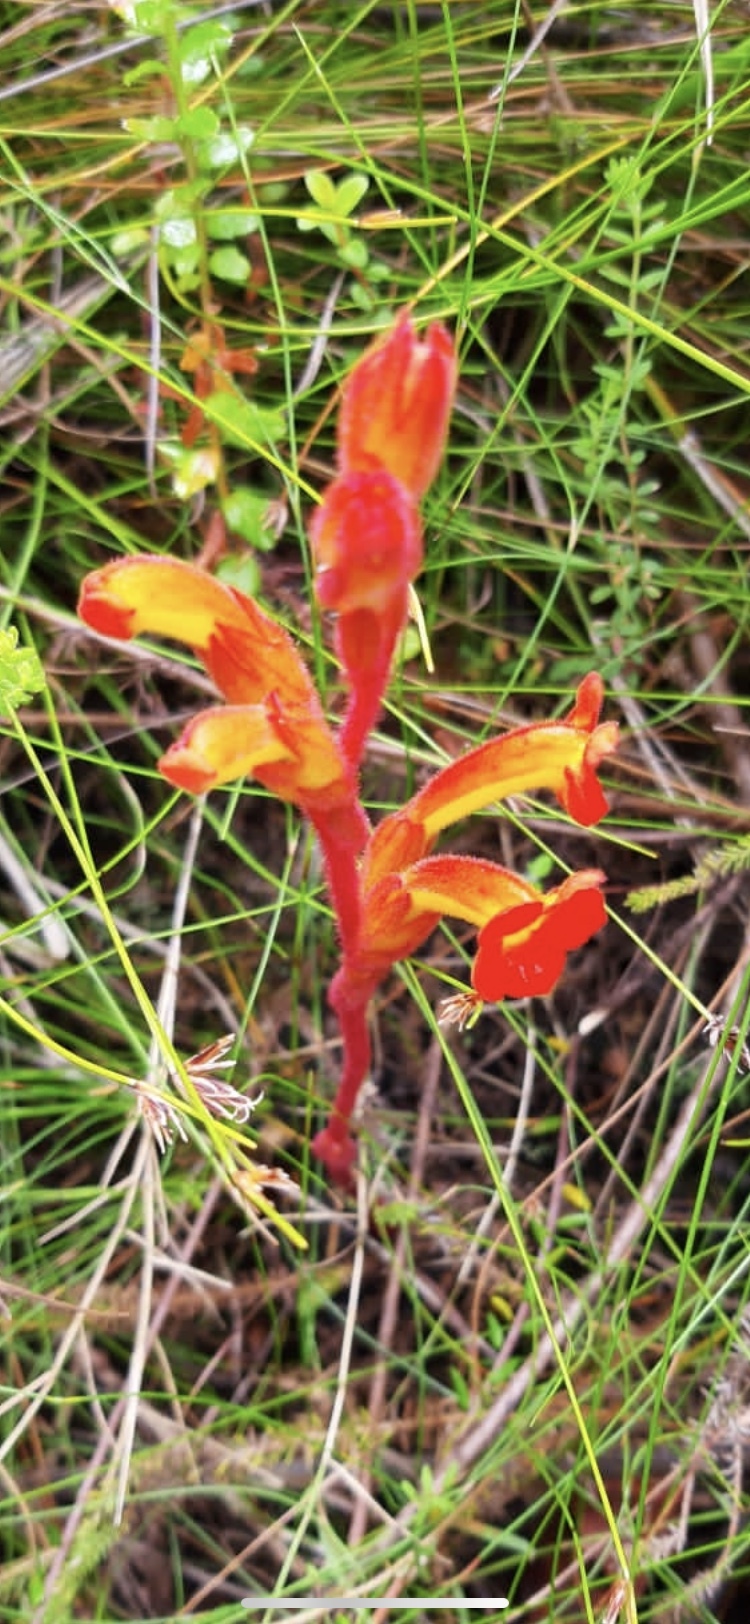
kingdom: Plantae
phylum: Tracheophyta
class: Magnoliopsida
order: Lamiales
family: Orobanchaceae
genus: Harveya
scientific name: Harveya bolusii
